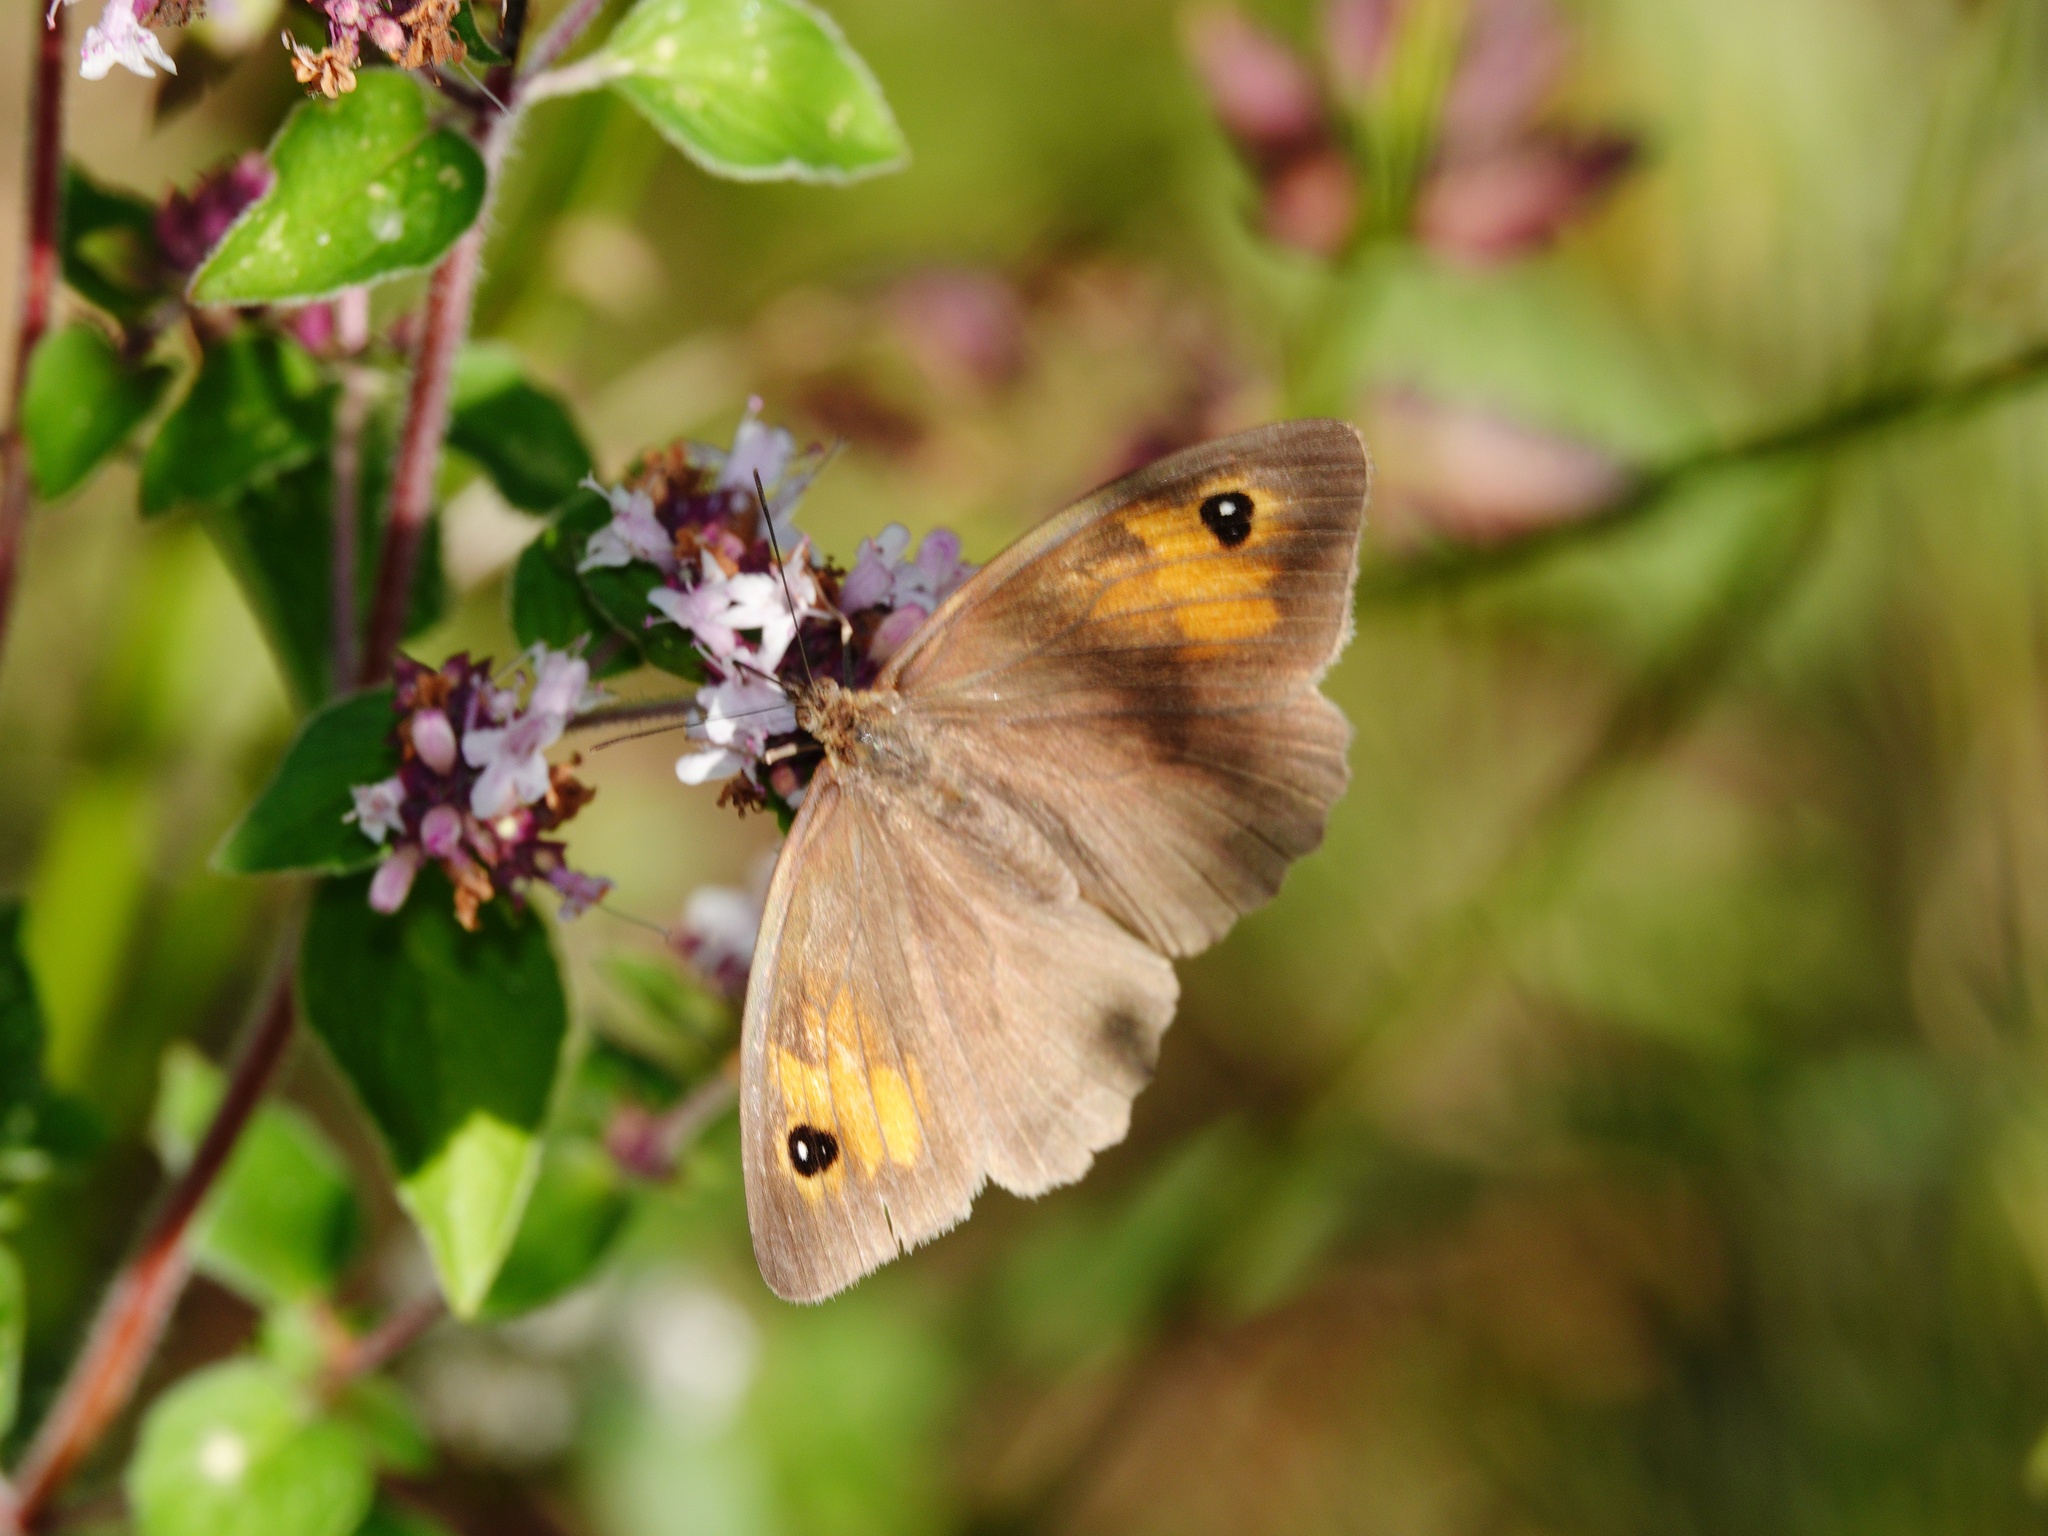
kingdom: Animalia
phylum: Arthropoda
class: Insecta
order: Lepidoptera
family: Nymphalidae
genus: Maniola
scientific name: Maniola jurtina
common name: Meadow brown
